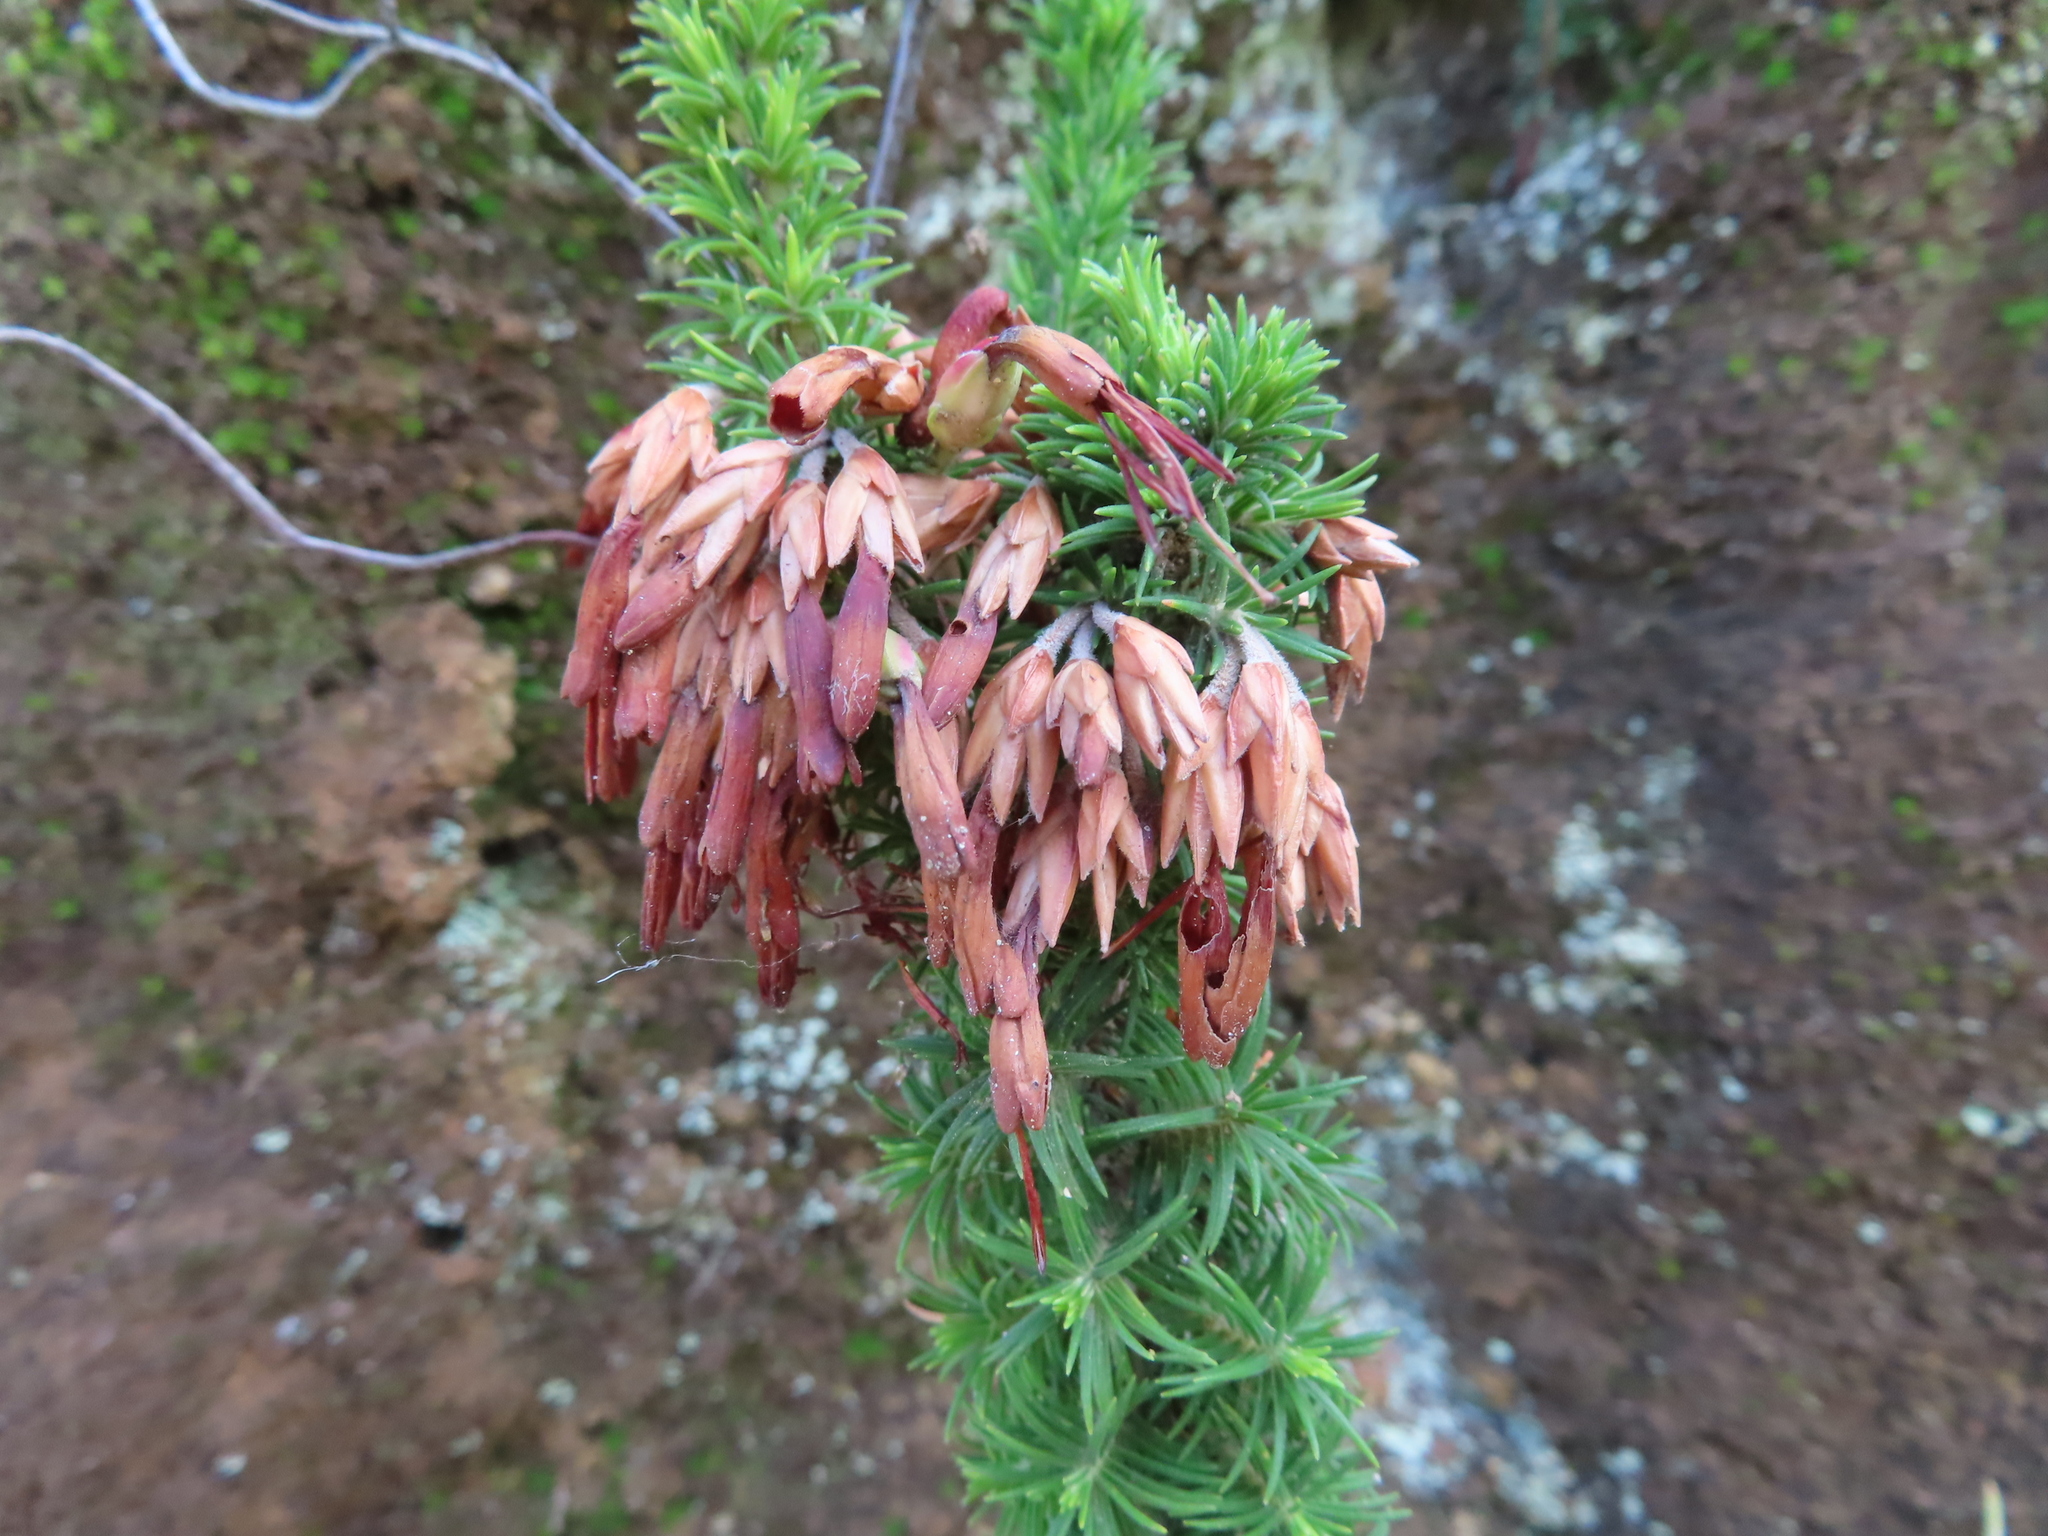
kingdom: Plantae
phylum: Tracheophyta
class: Magnoliopsida
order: Ericales
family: Ericaceae
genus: Erica
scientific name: Erica coccinea
